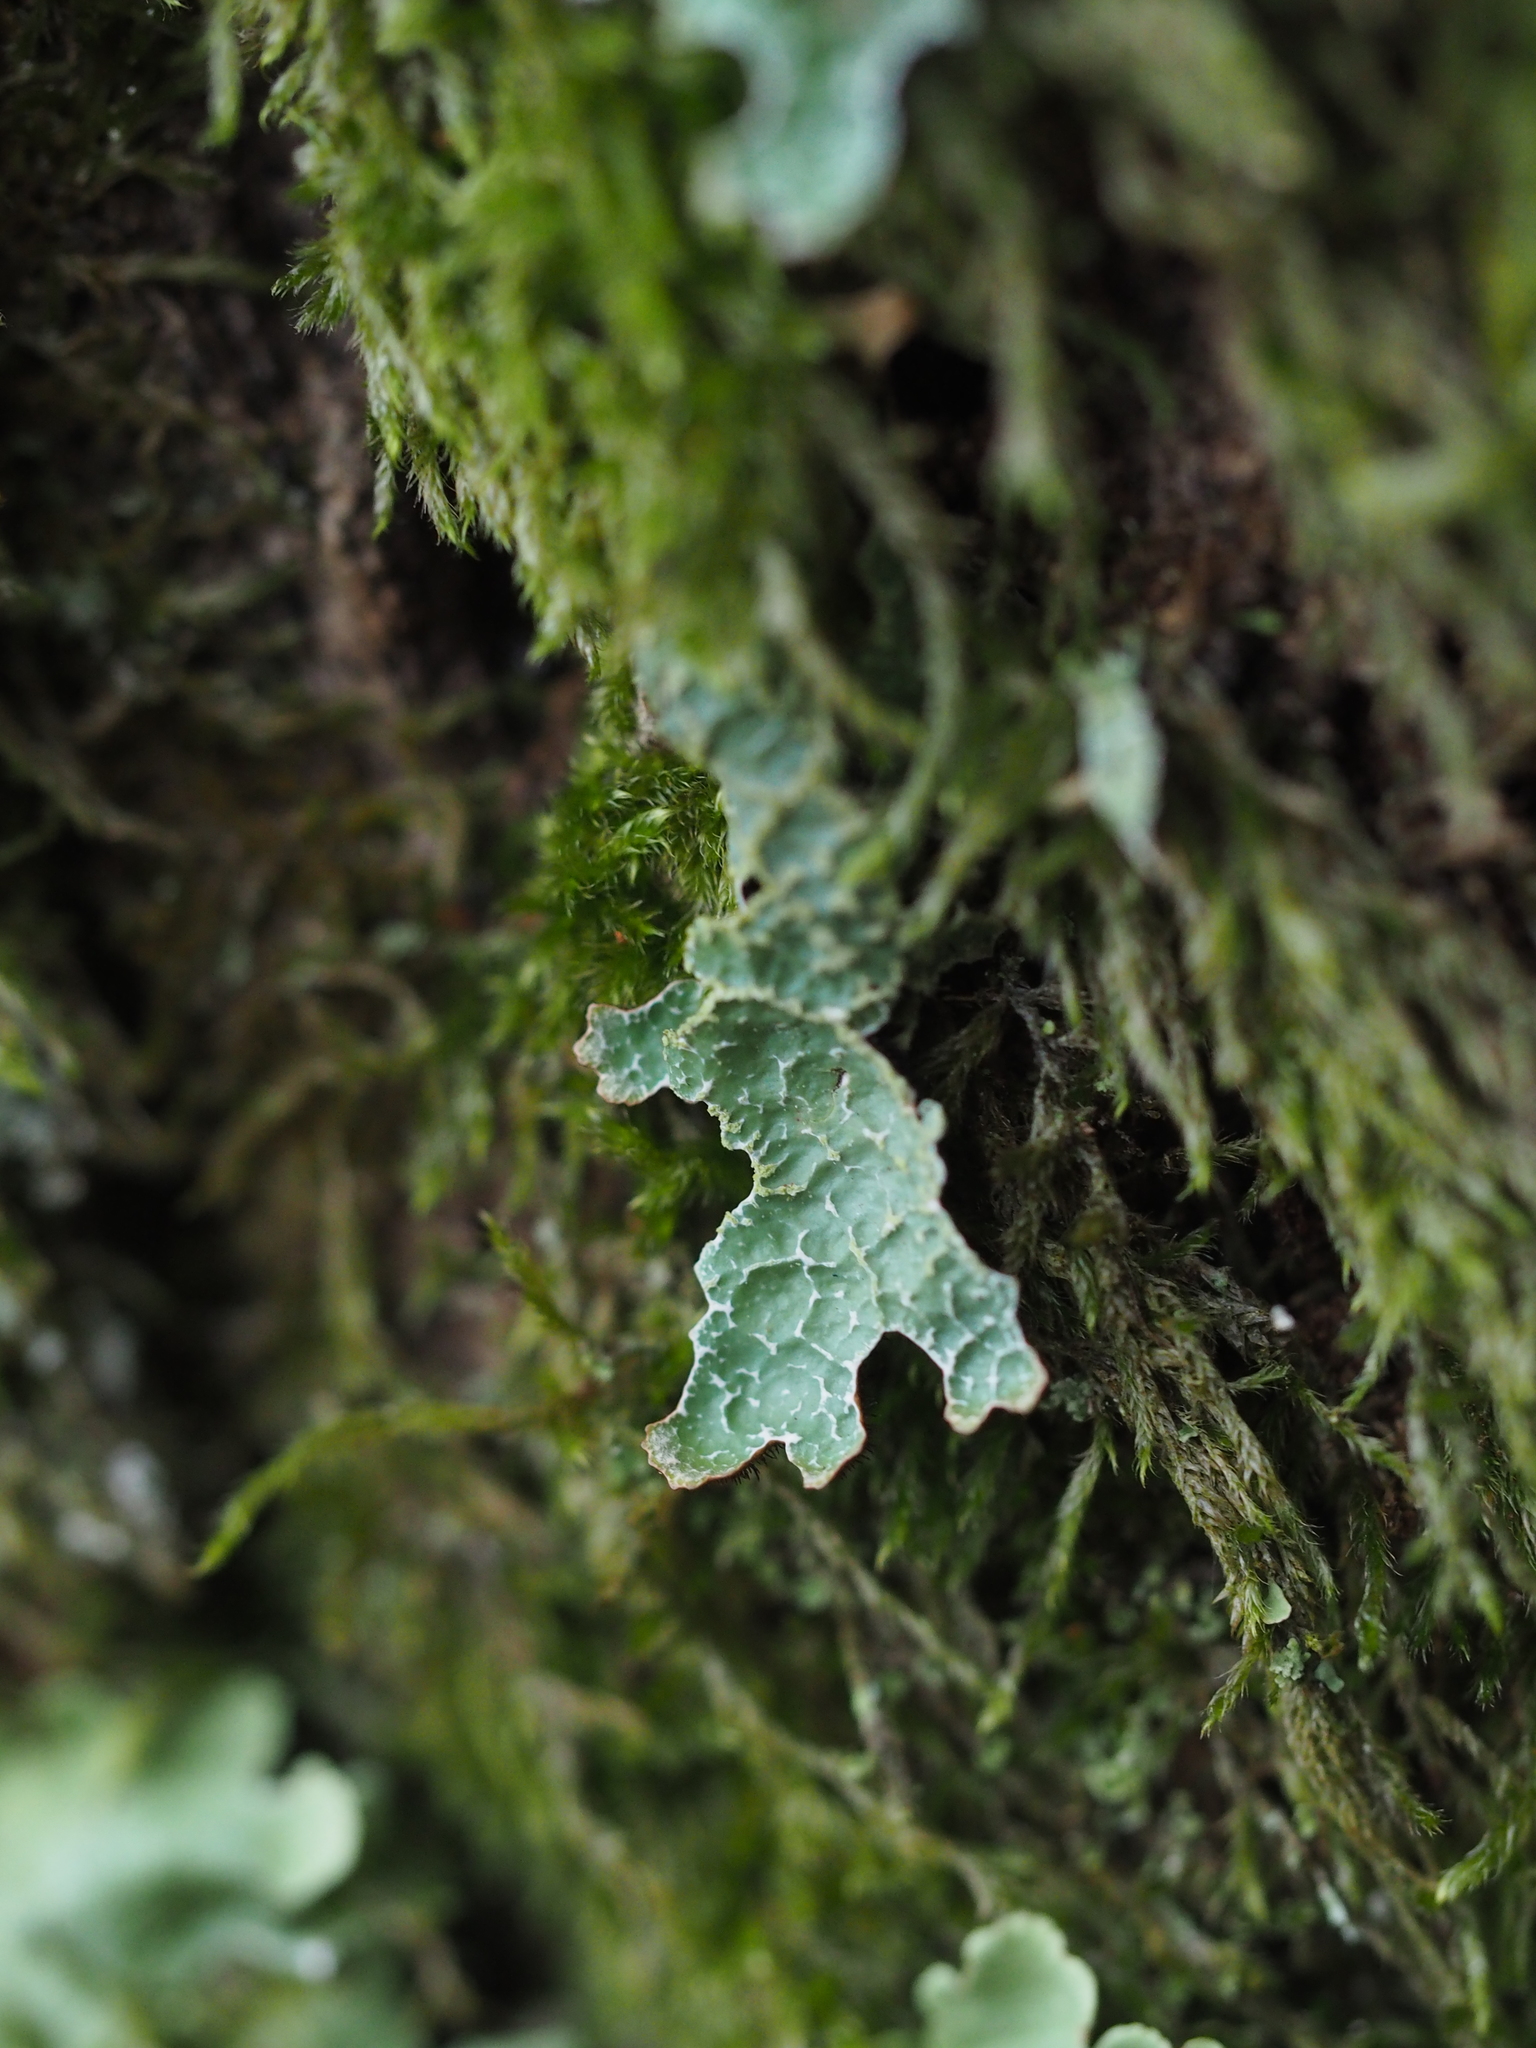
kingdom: Fungi
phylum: Ascomycota
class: Lecanoromycetes
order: Lecanorales
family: Parmeliaceae
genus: Parmelia
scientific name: Parmelia sulcata
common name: Netted shield lichen
